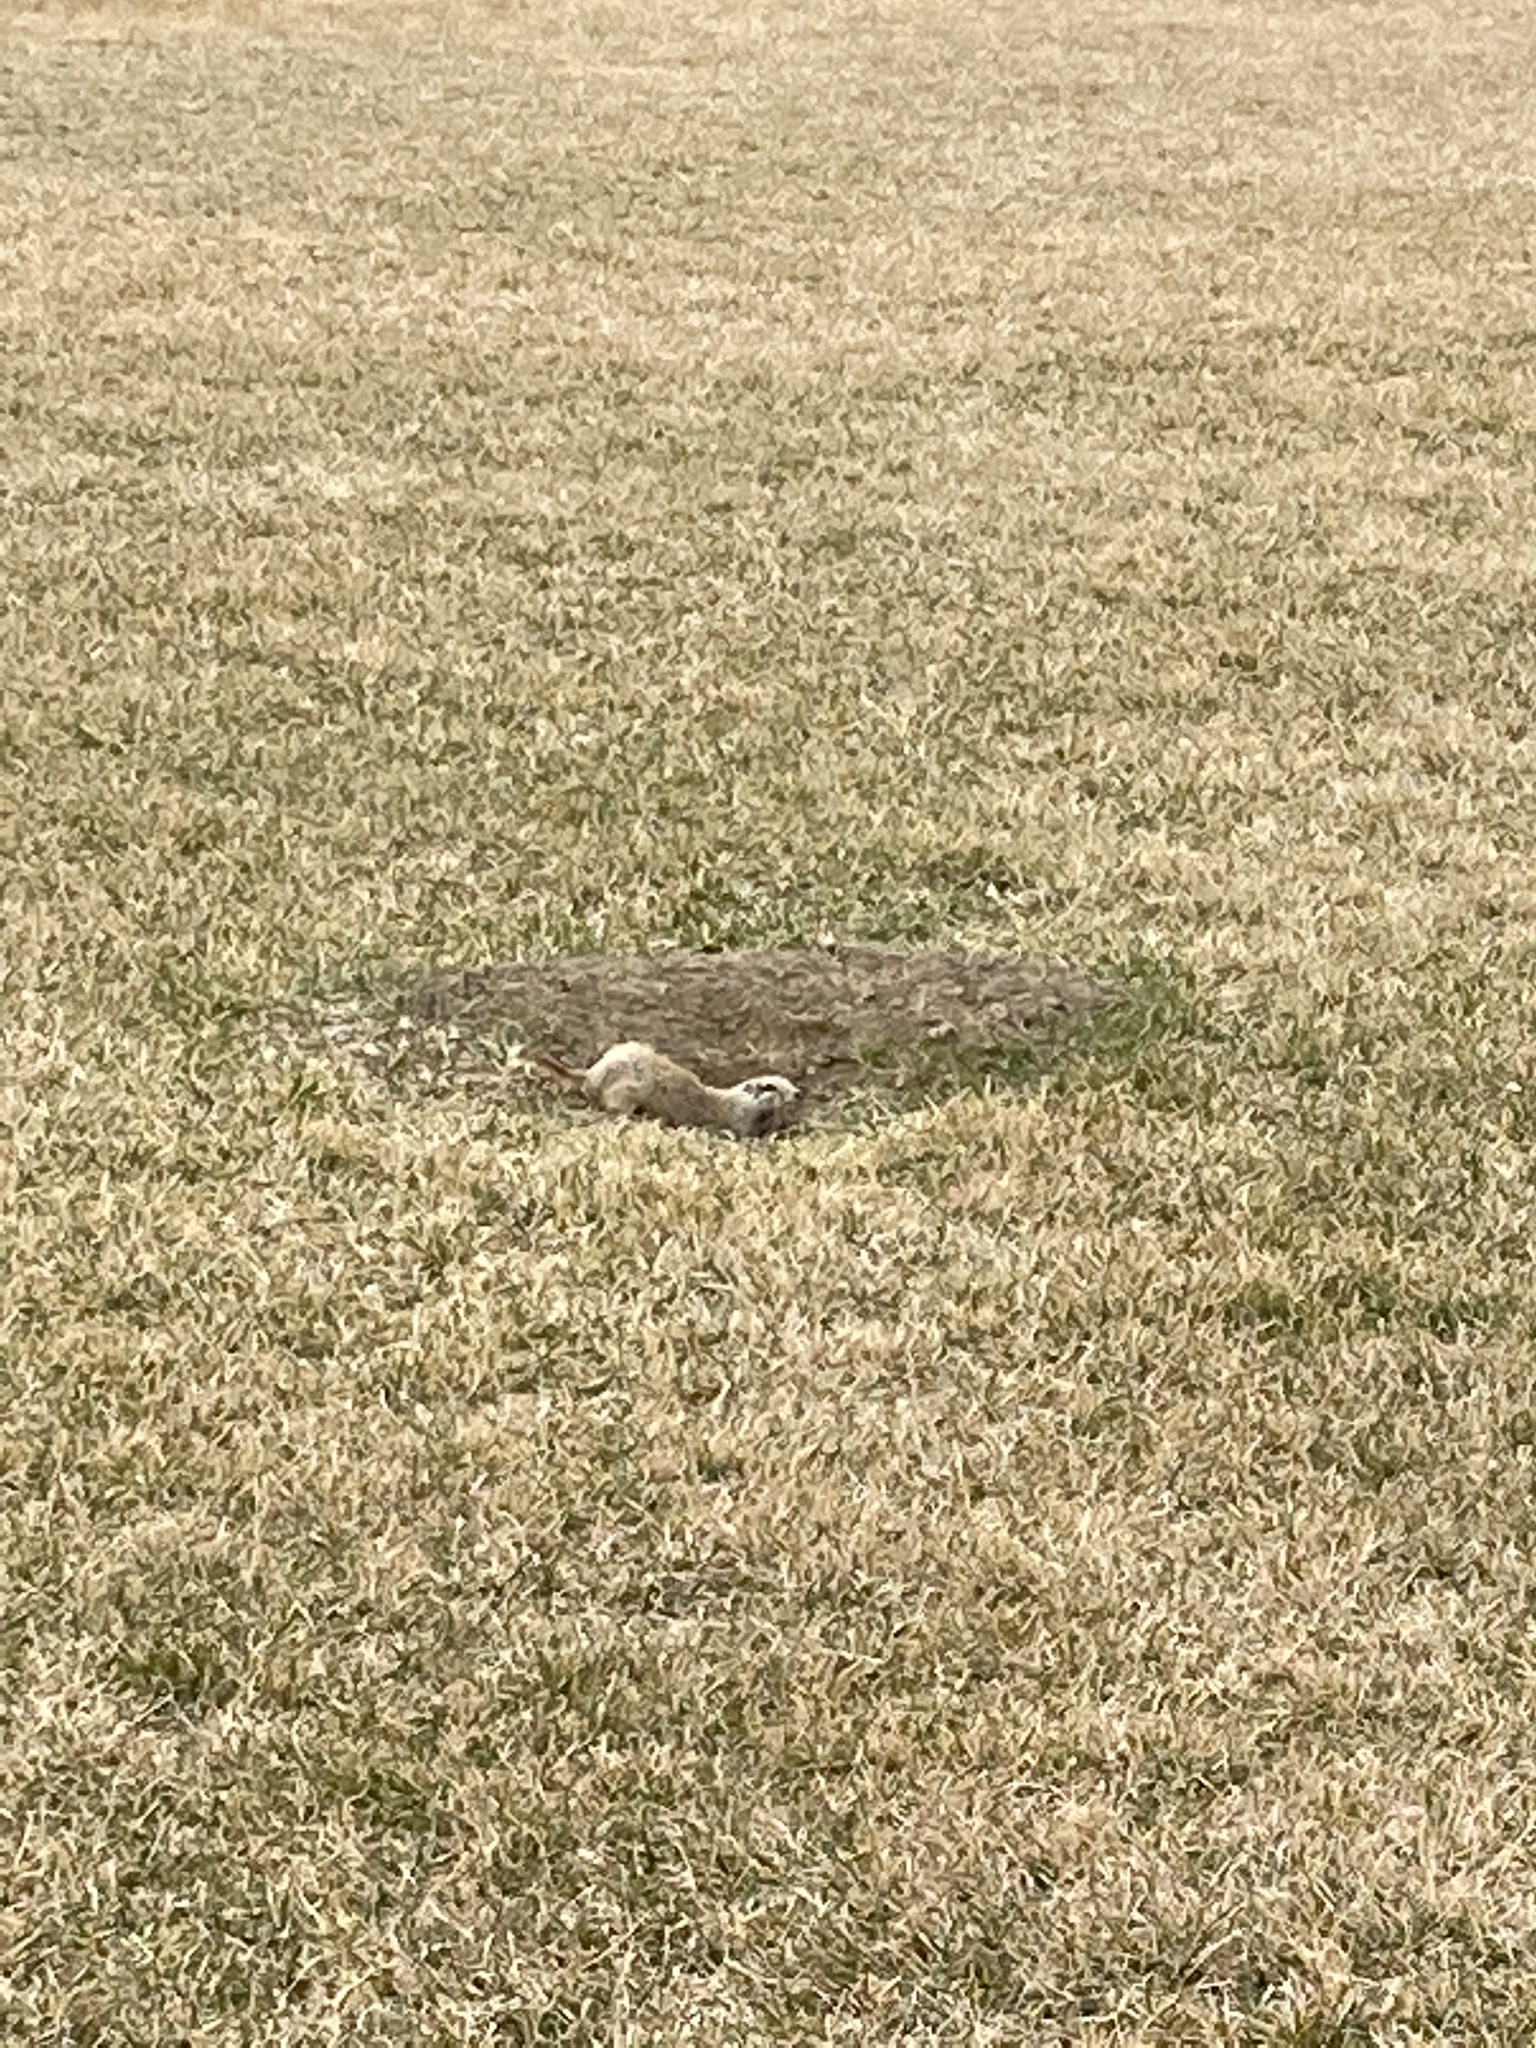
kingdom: Animalia
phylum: Chordata
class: Mammalia
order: Rodentia
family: Sciuridae
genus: Urocitellus
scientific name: Urocitellus richardsonii
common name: Richardson's ground squirrel
